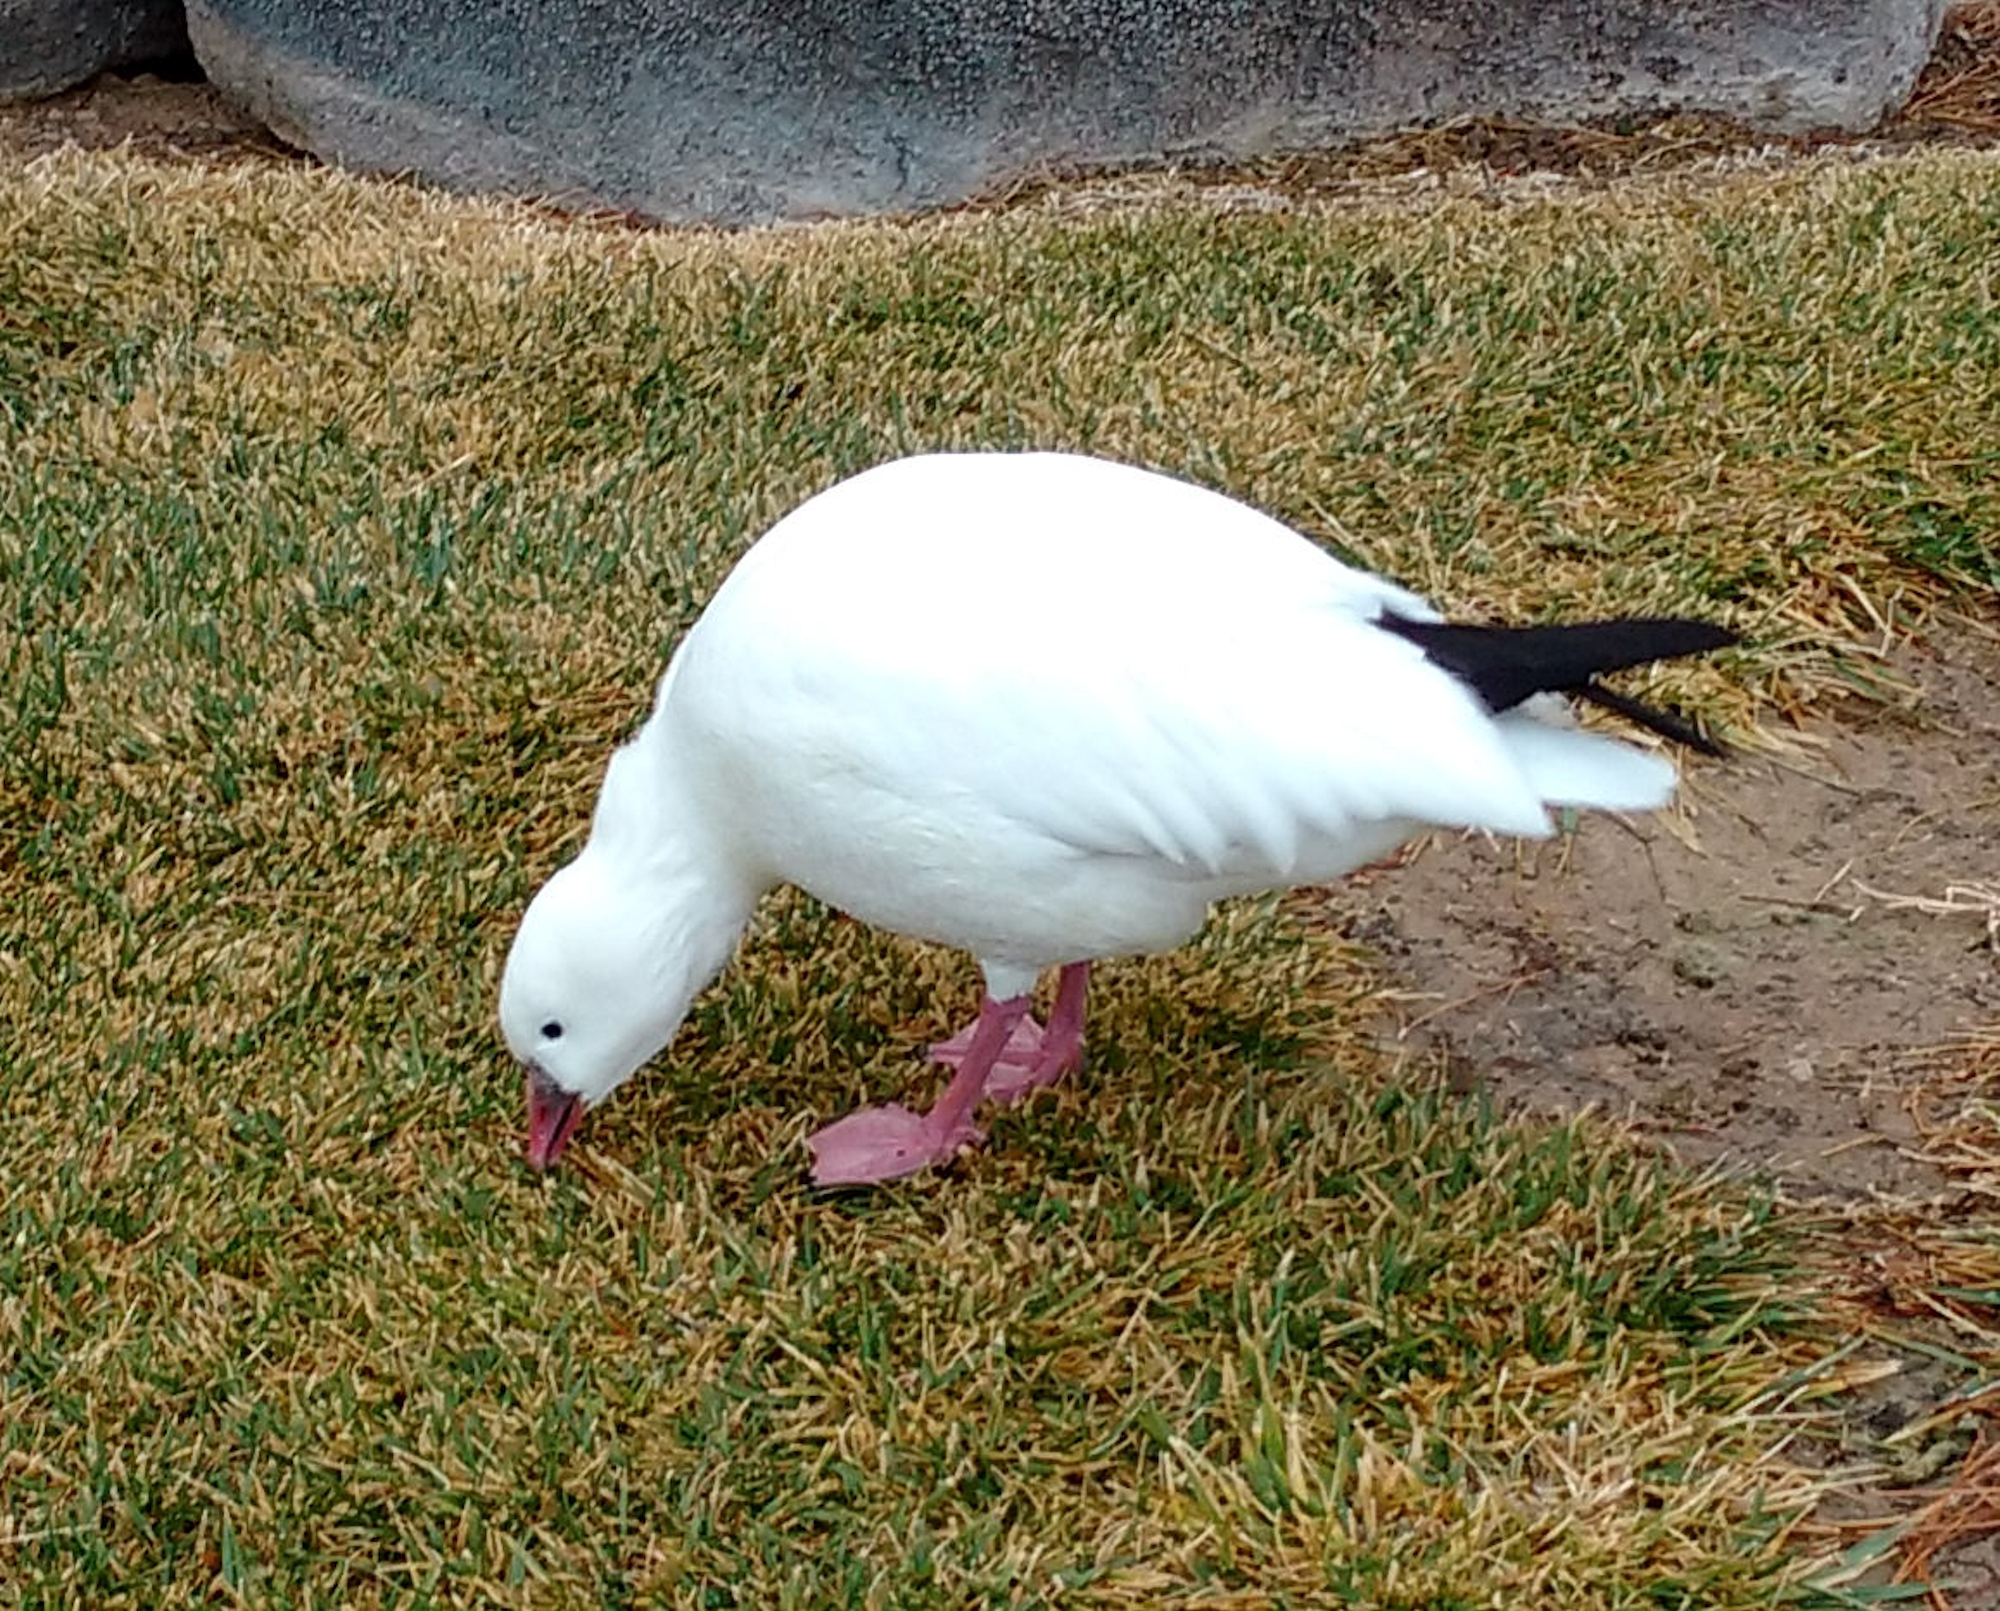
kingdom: Animalia
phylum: Chordata
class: Aves
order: Anseriformes
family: Anatidae
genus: Anser
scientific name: Anser rossii
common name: Ross's goose
